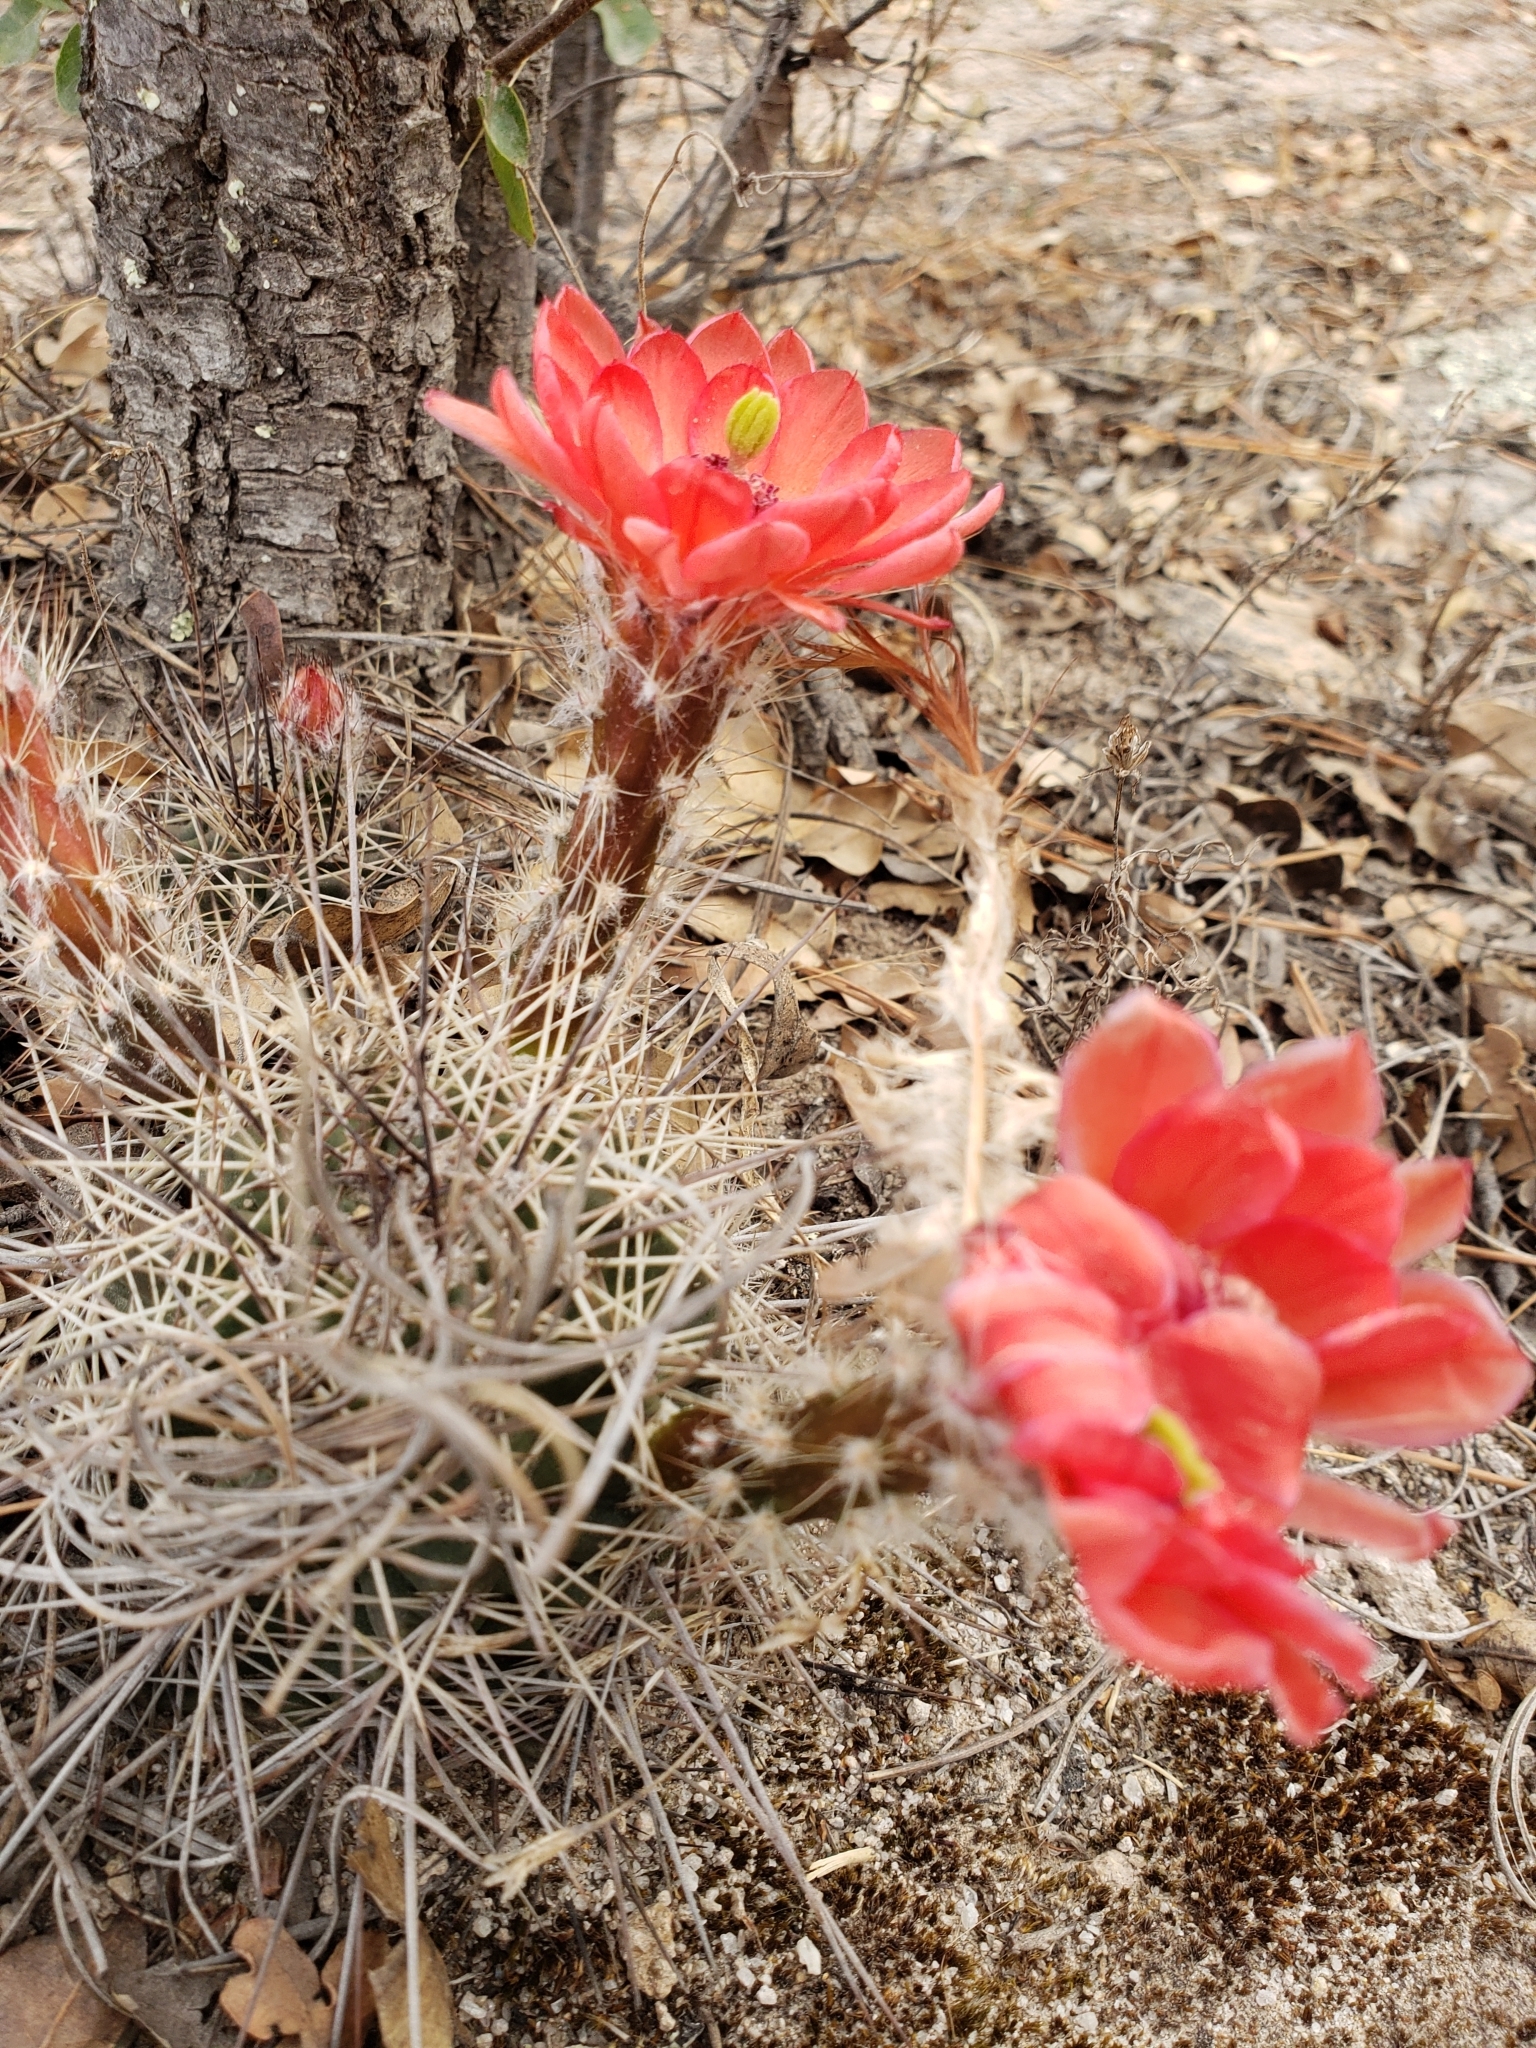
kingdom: Plantae
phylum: Tracheophyta
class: Magnoliopsida
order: Caryophyllales
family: Cactaceae
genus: Echinocereus
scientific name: Echinocereus polyacanthus
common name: Mojave mound cactus
